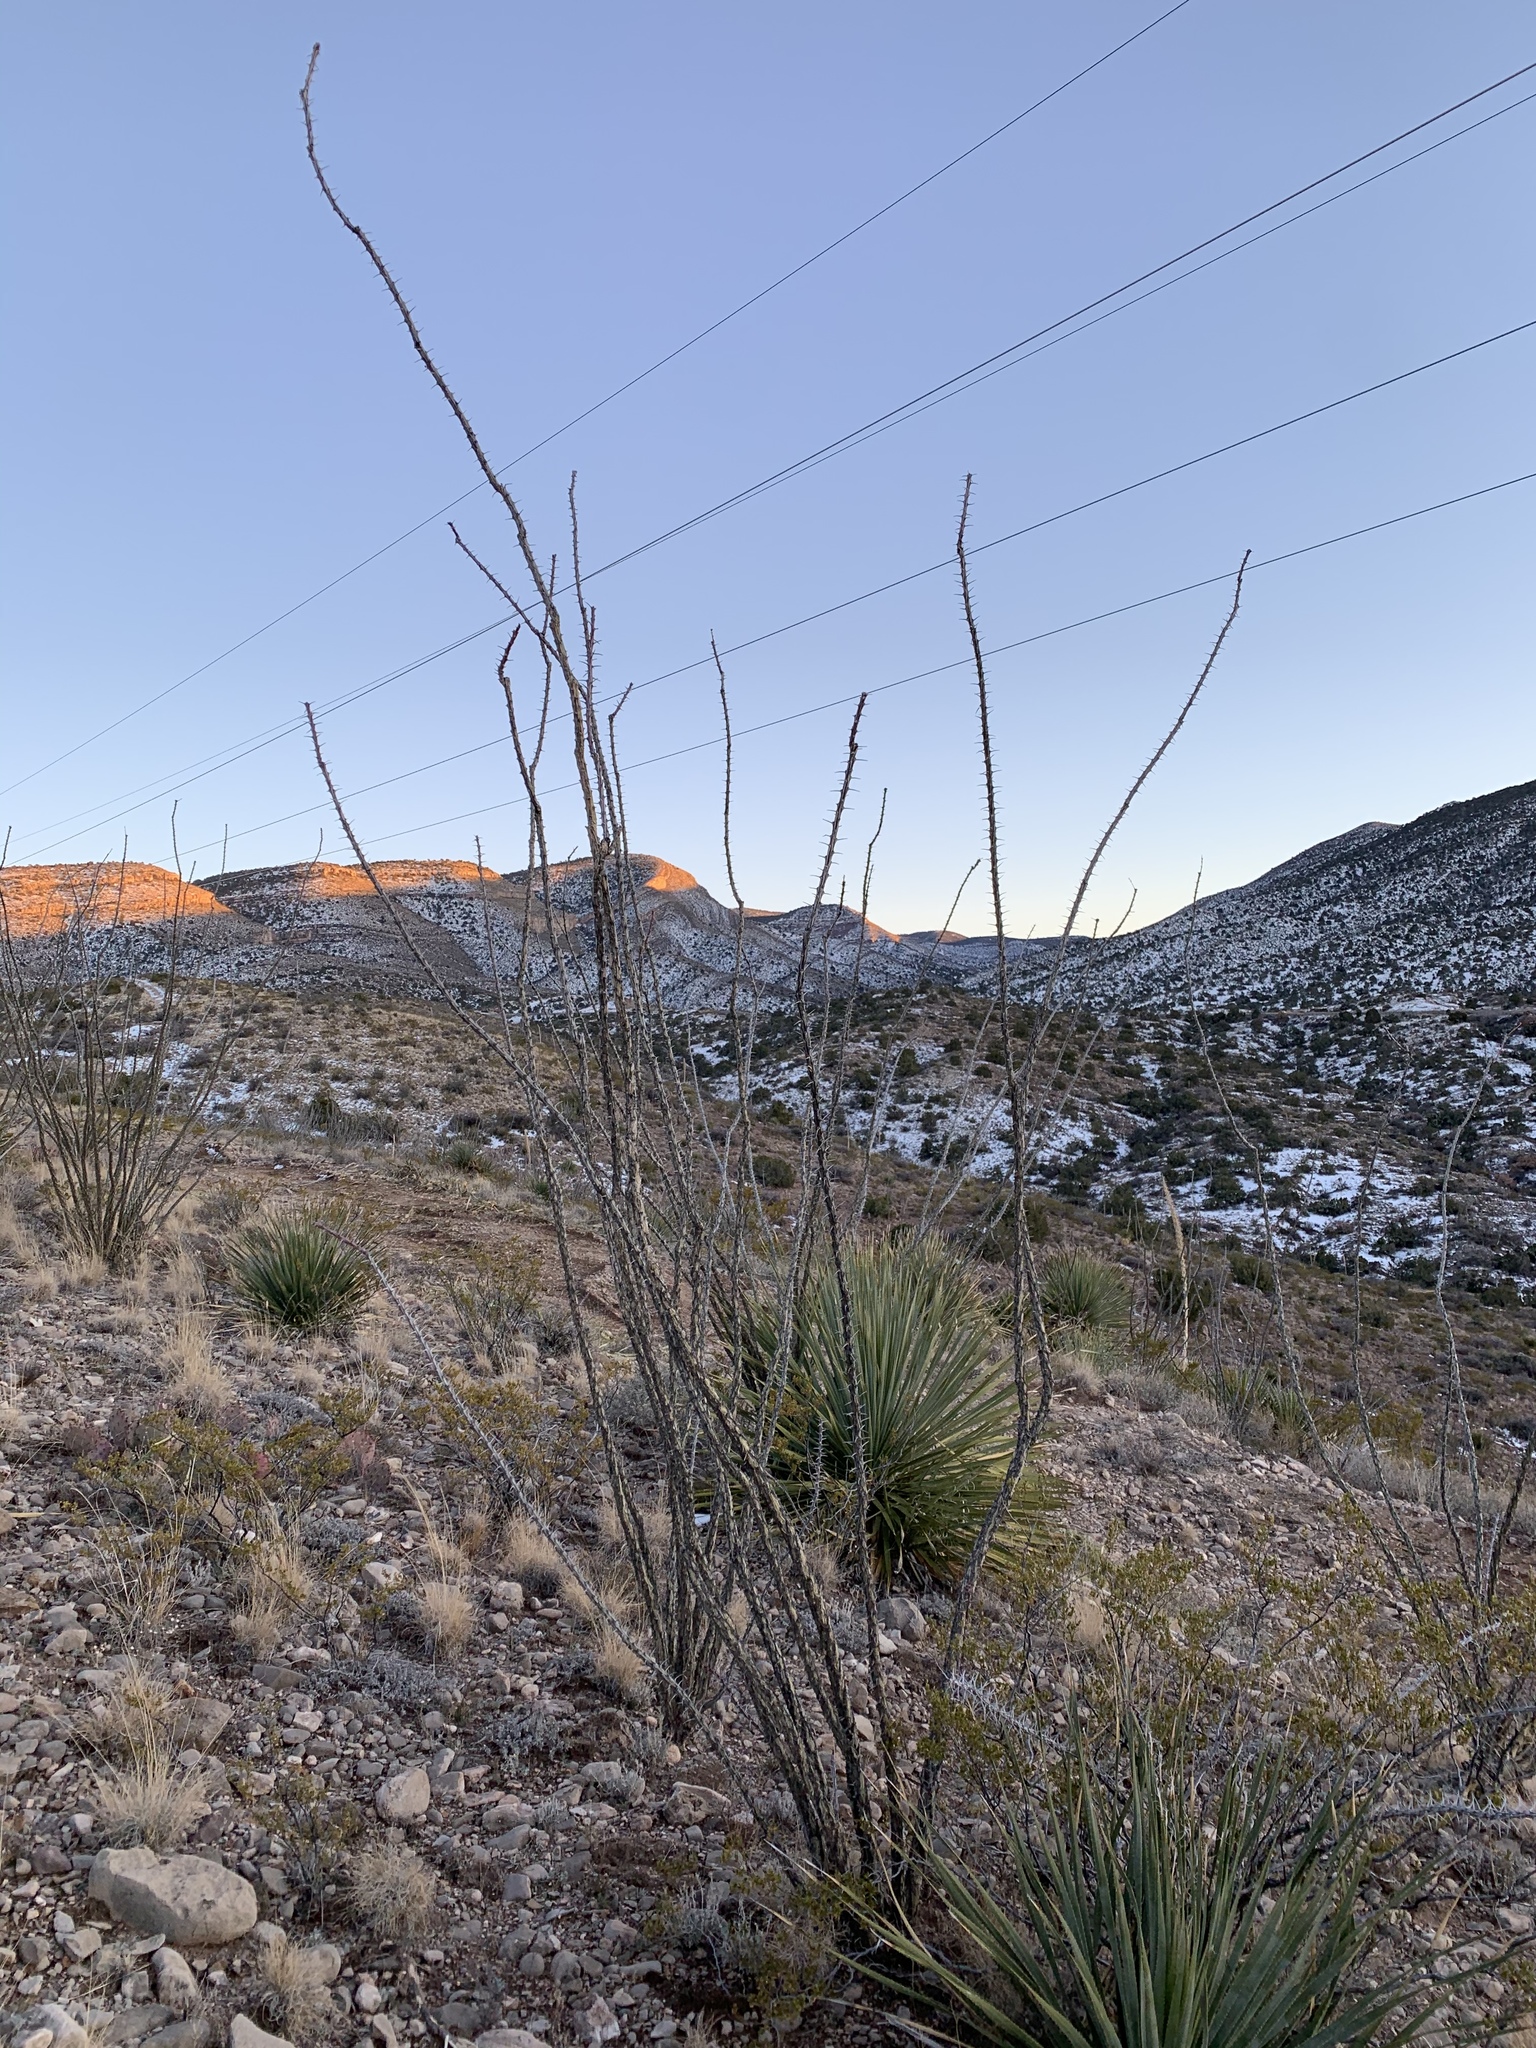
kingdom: Plantae
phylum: Tracheophyta
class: Magnoliopsida
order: Ericales
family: Fouquieriaceae
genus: Fouquieria
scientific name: Fouquieria splendens
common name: Vine-cactus
